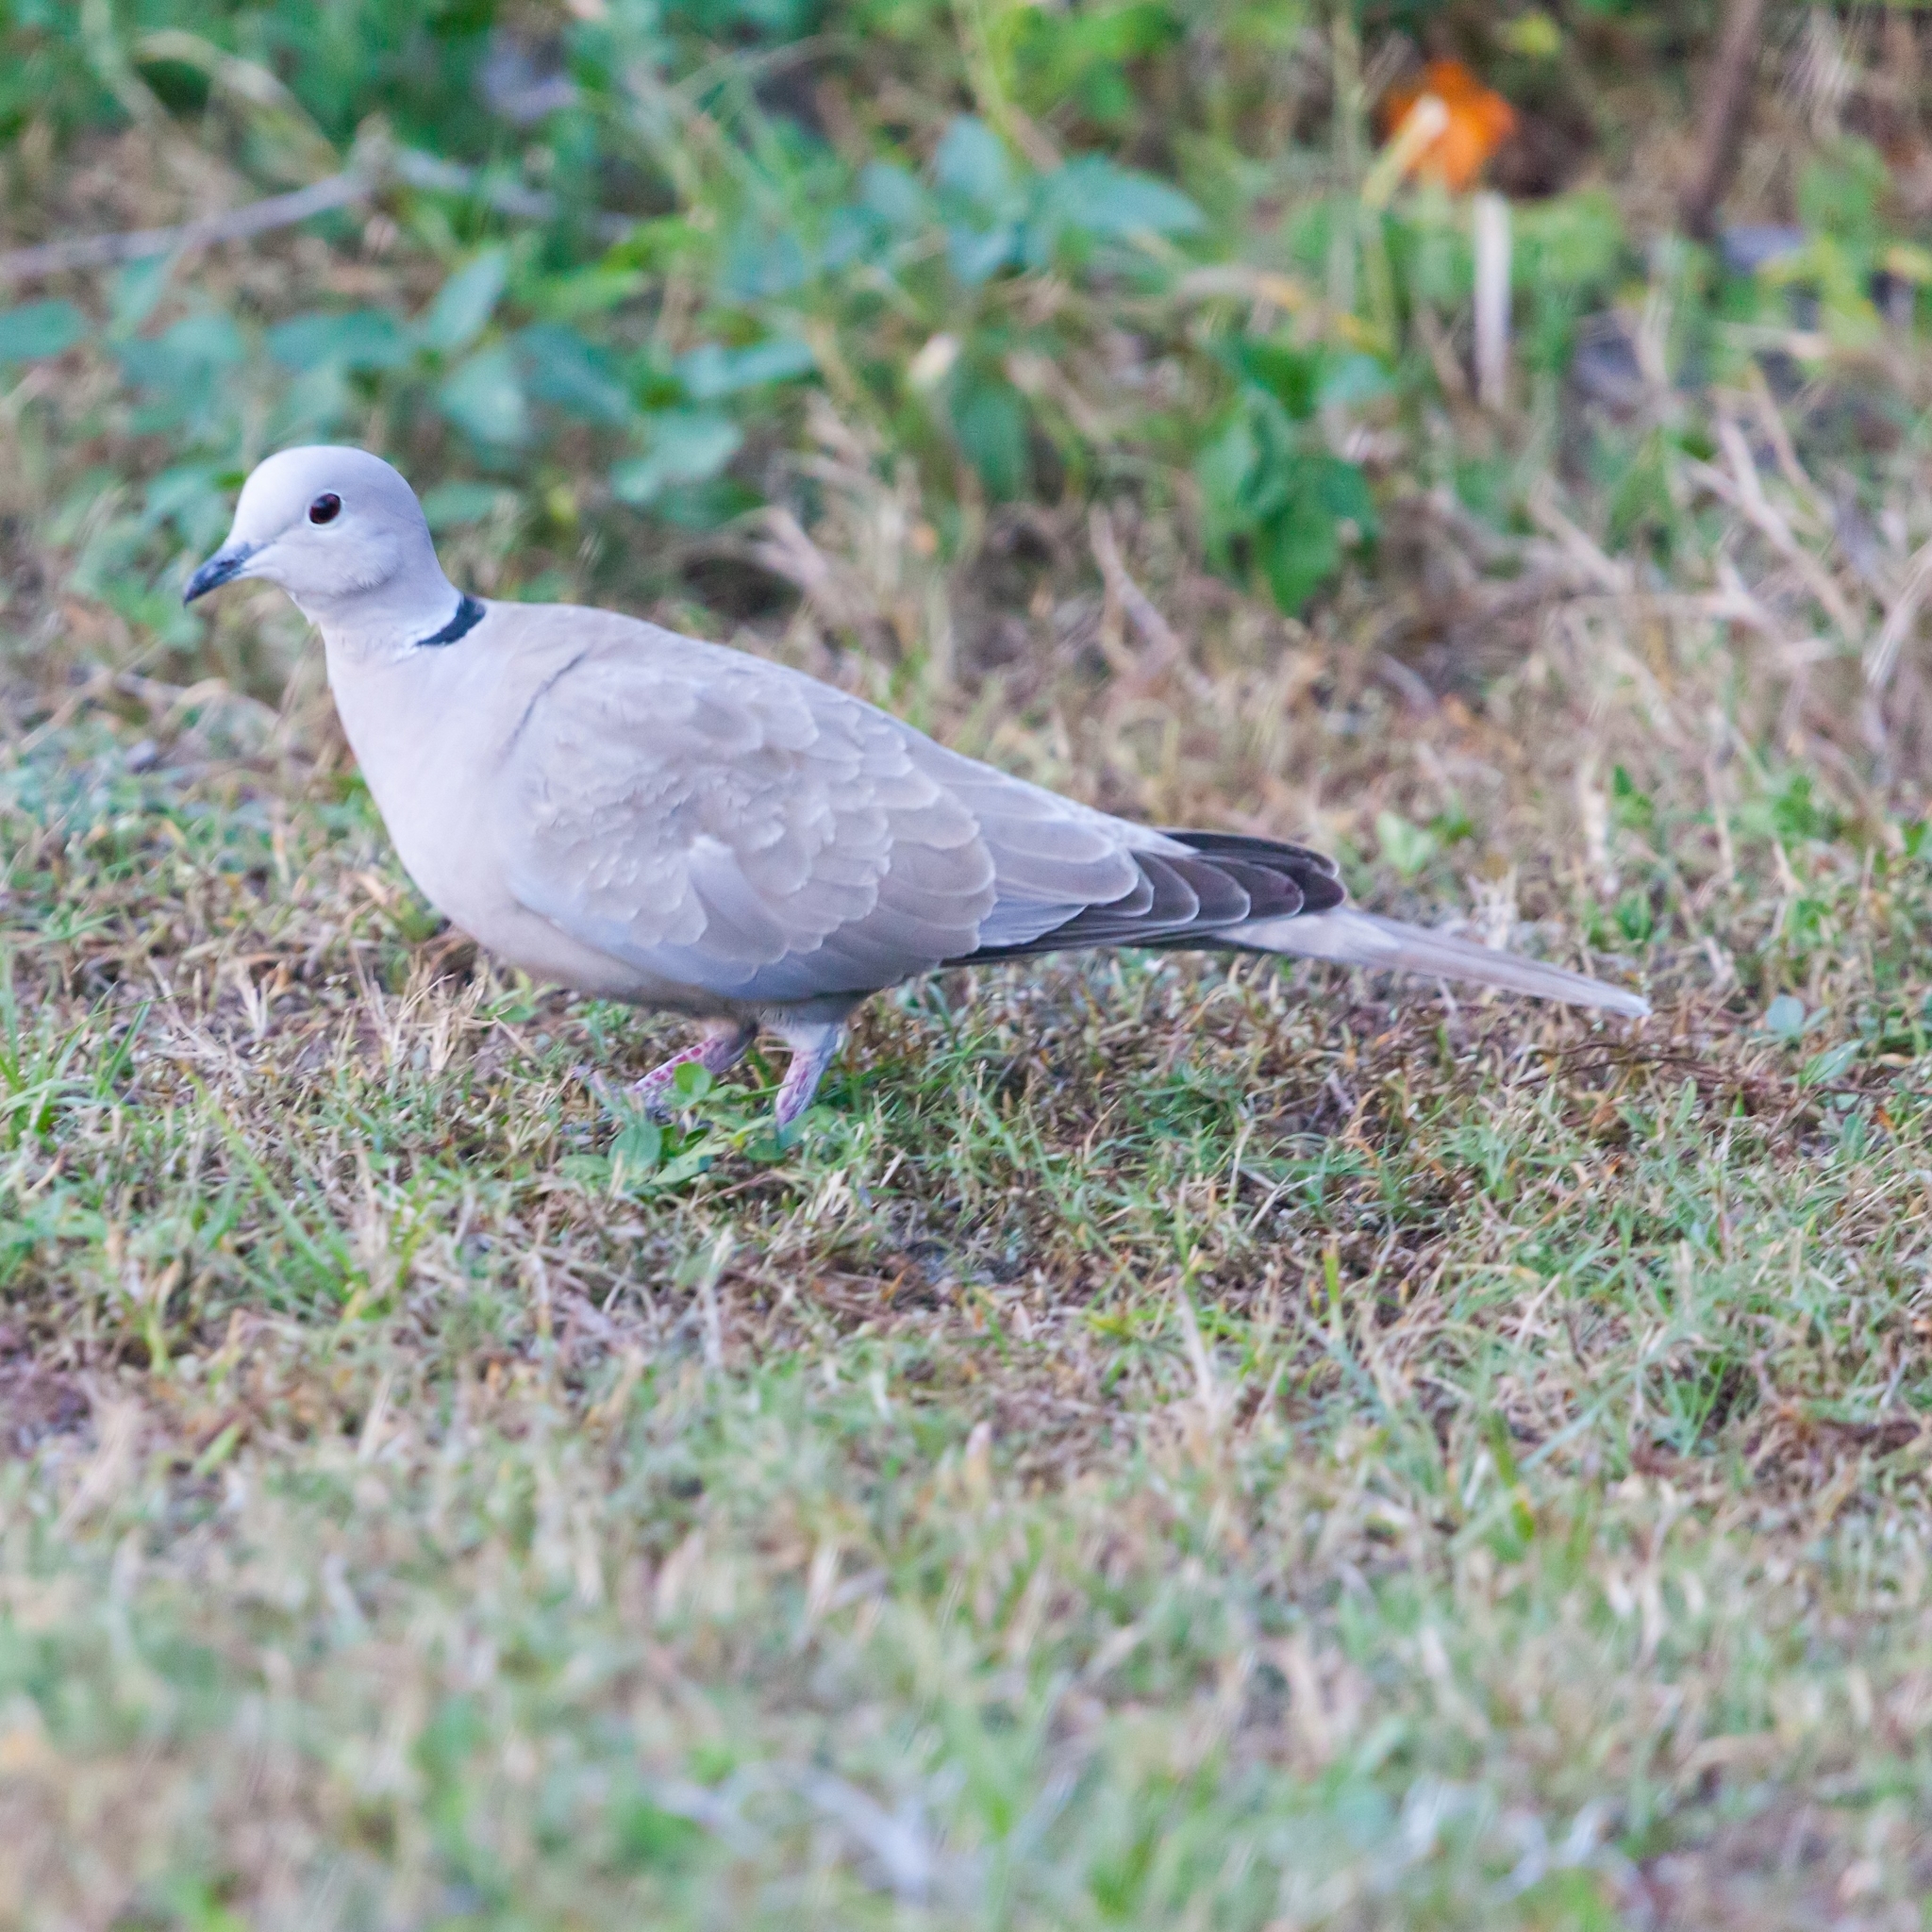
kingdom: Animalia
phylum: Chordata
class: Aves
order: Columbiformes
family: Columbidae
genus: Streptopelia
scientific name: Streptopelia decaocto
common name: Eurasian collared dove
